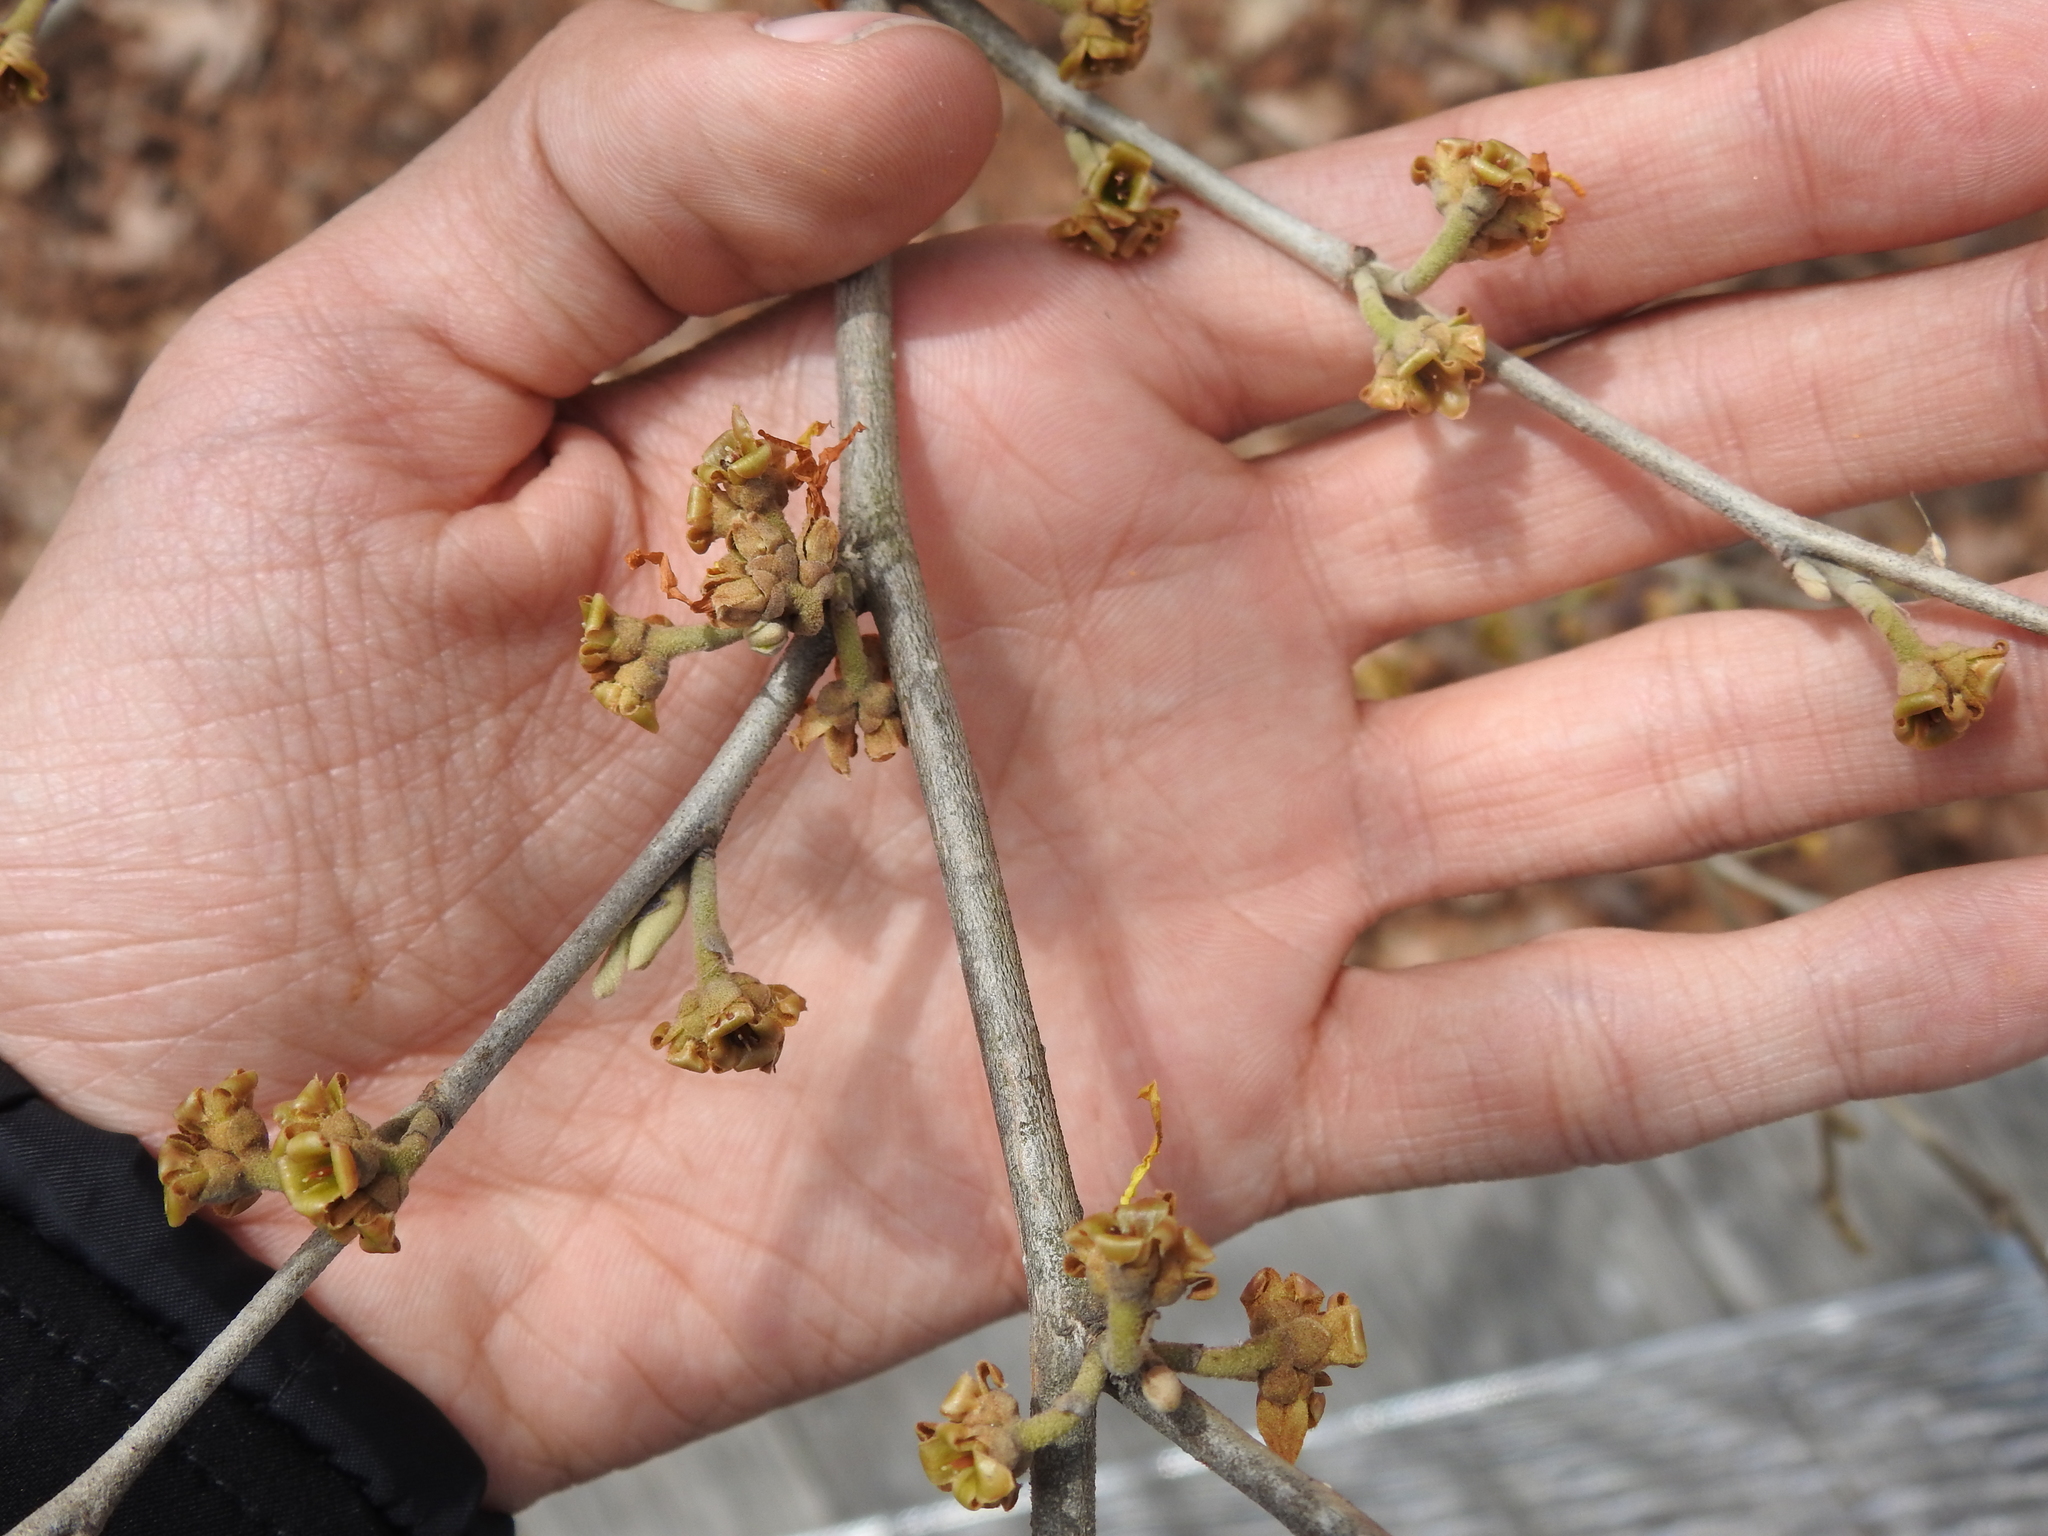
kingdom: Plantae
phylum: Tracheophyta
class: Magnoliopsida
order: Saxifragales
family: Hamamelidaceae
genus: Hamamelis
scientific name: Hamamelis virginiana
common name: Witch-hazel
